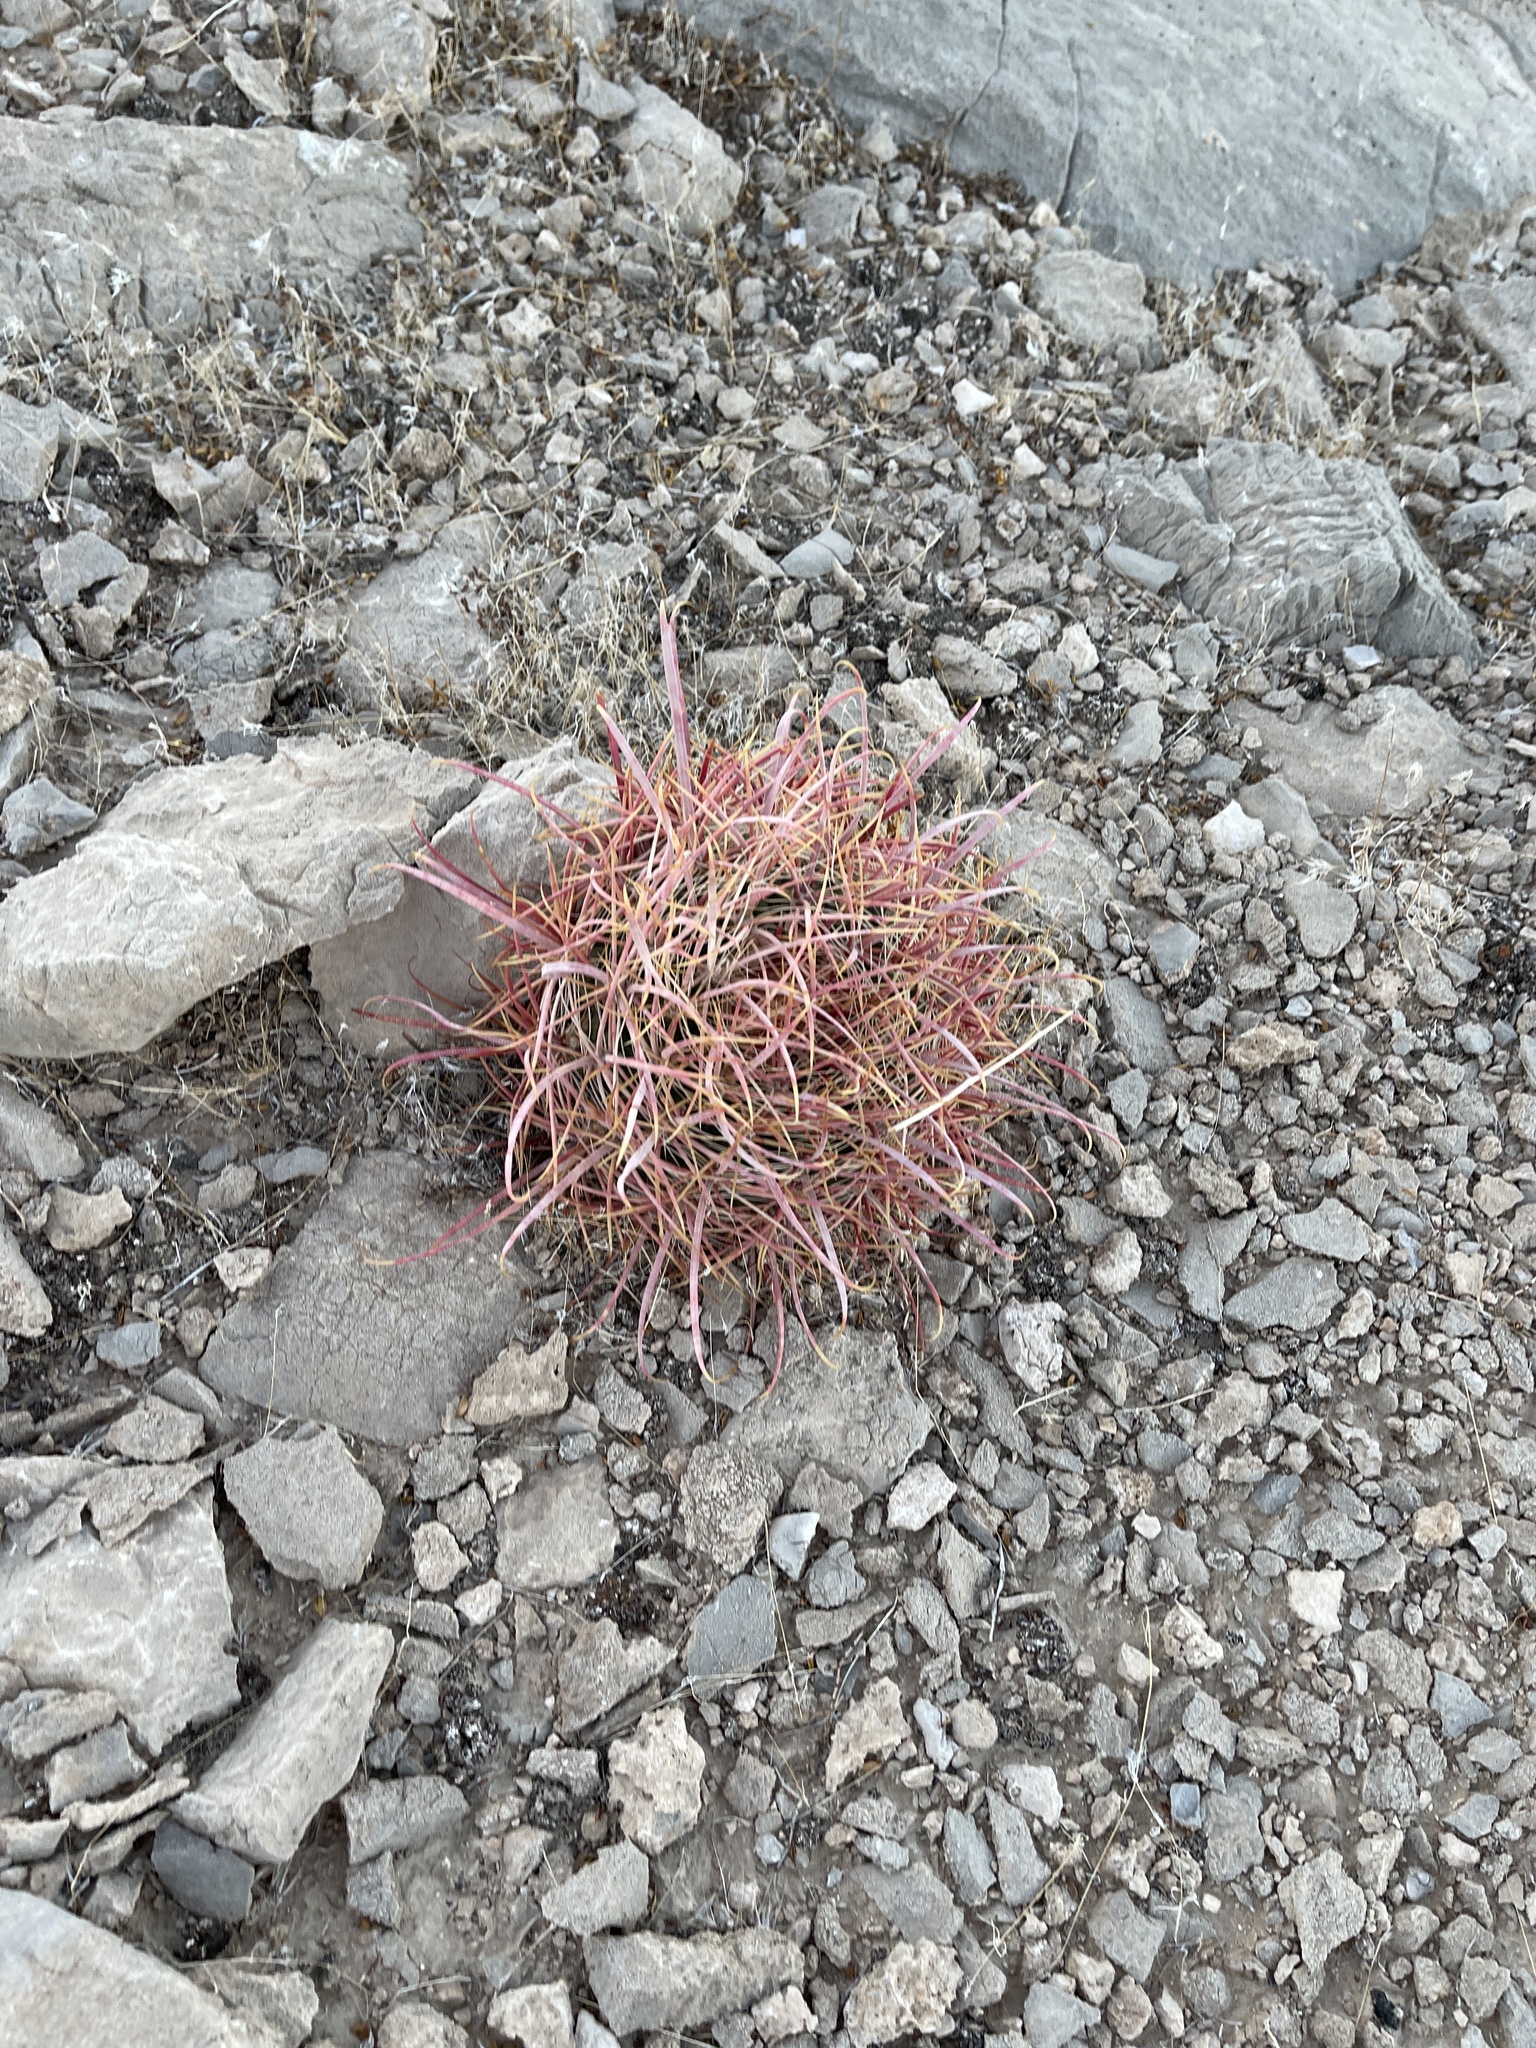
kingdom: Plantae
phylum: Tracheophyta
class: Magnoliopsida
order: Caryophyllales
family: Cactaceae
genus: Ferocactus
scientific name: Ferocactus cylindraceus
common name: California barrel cactus
